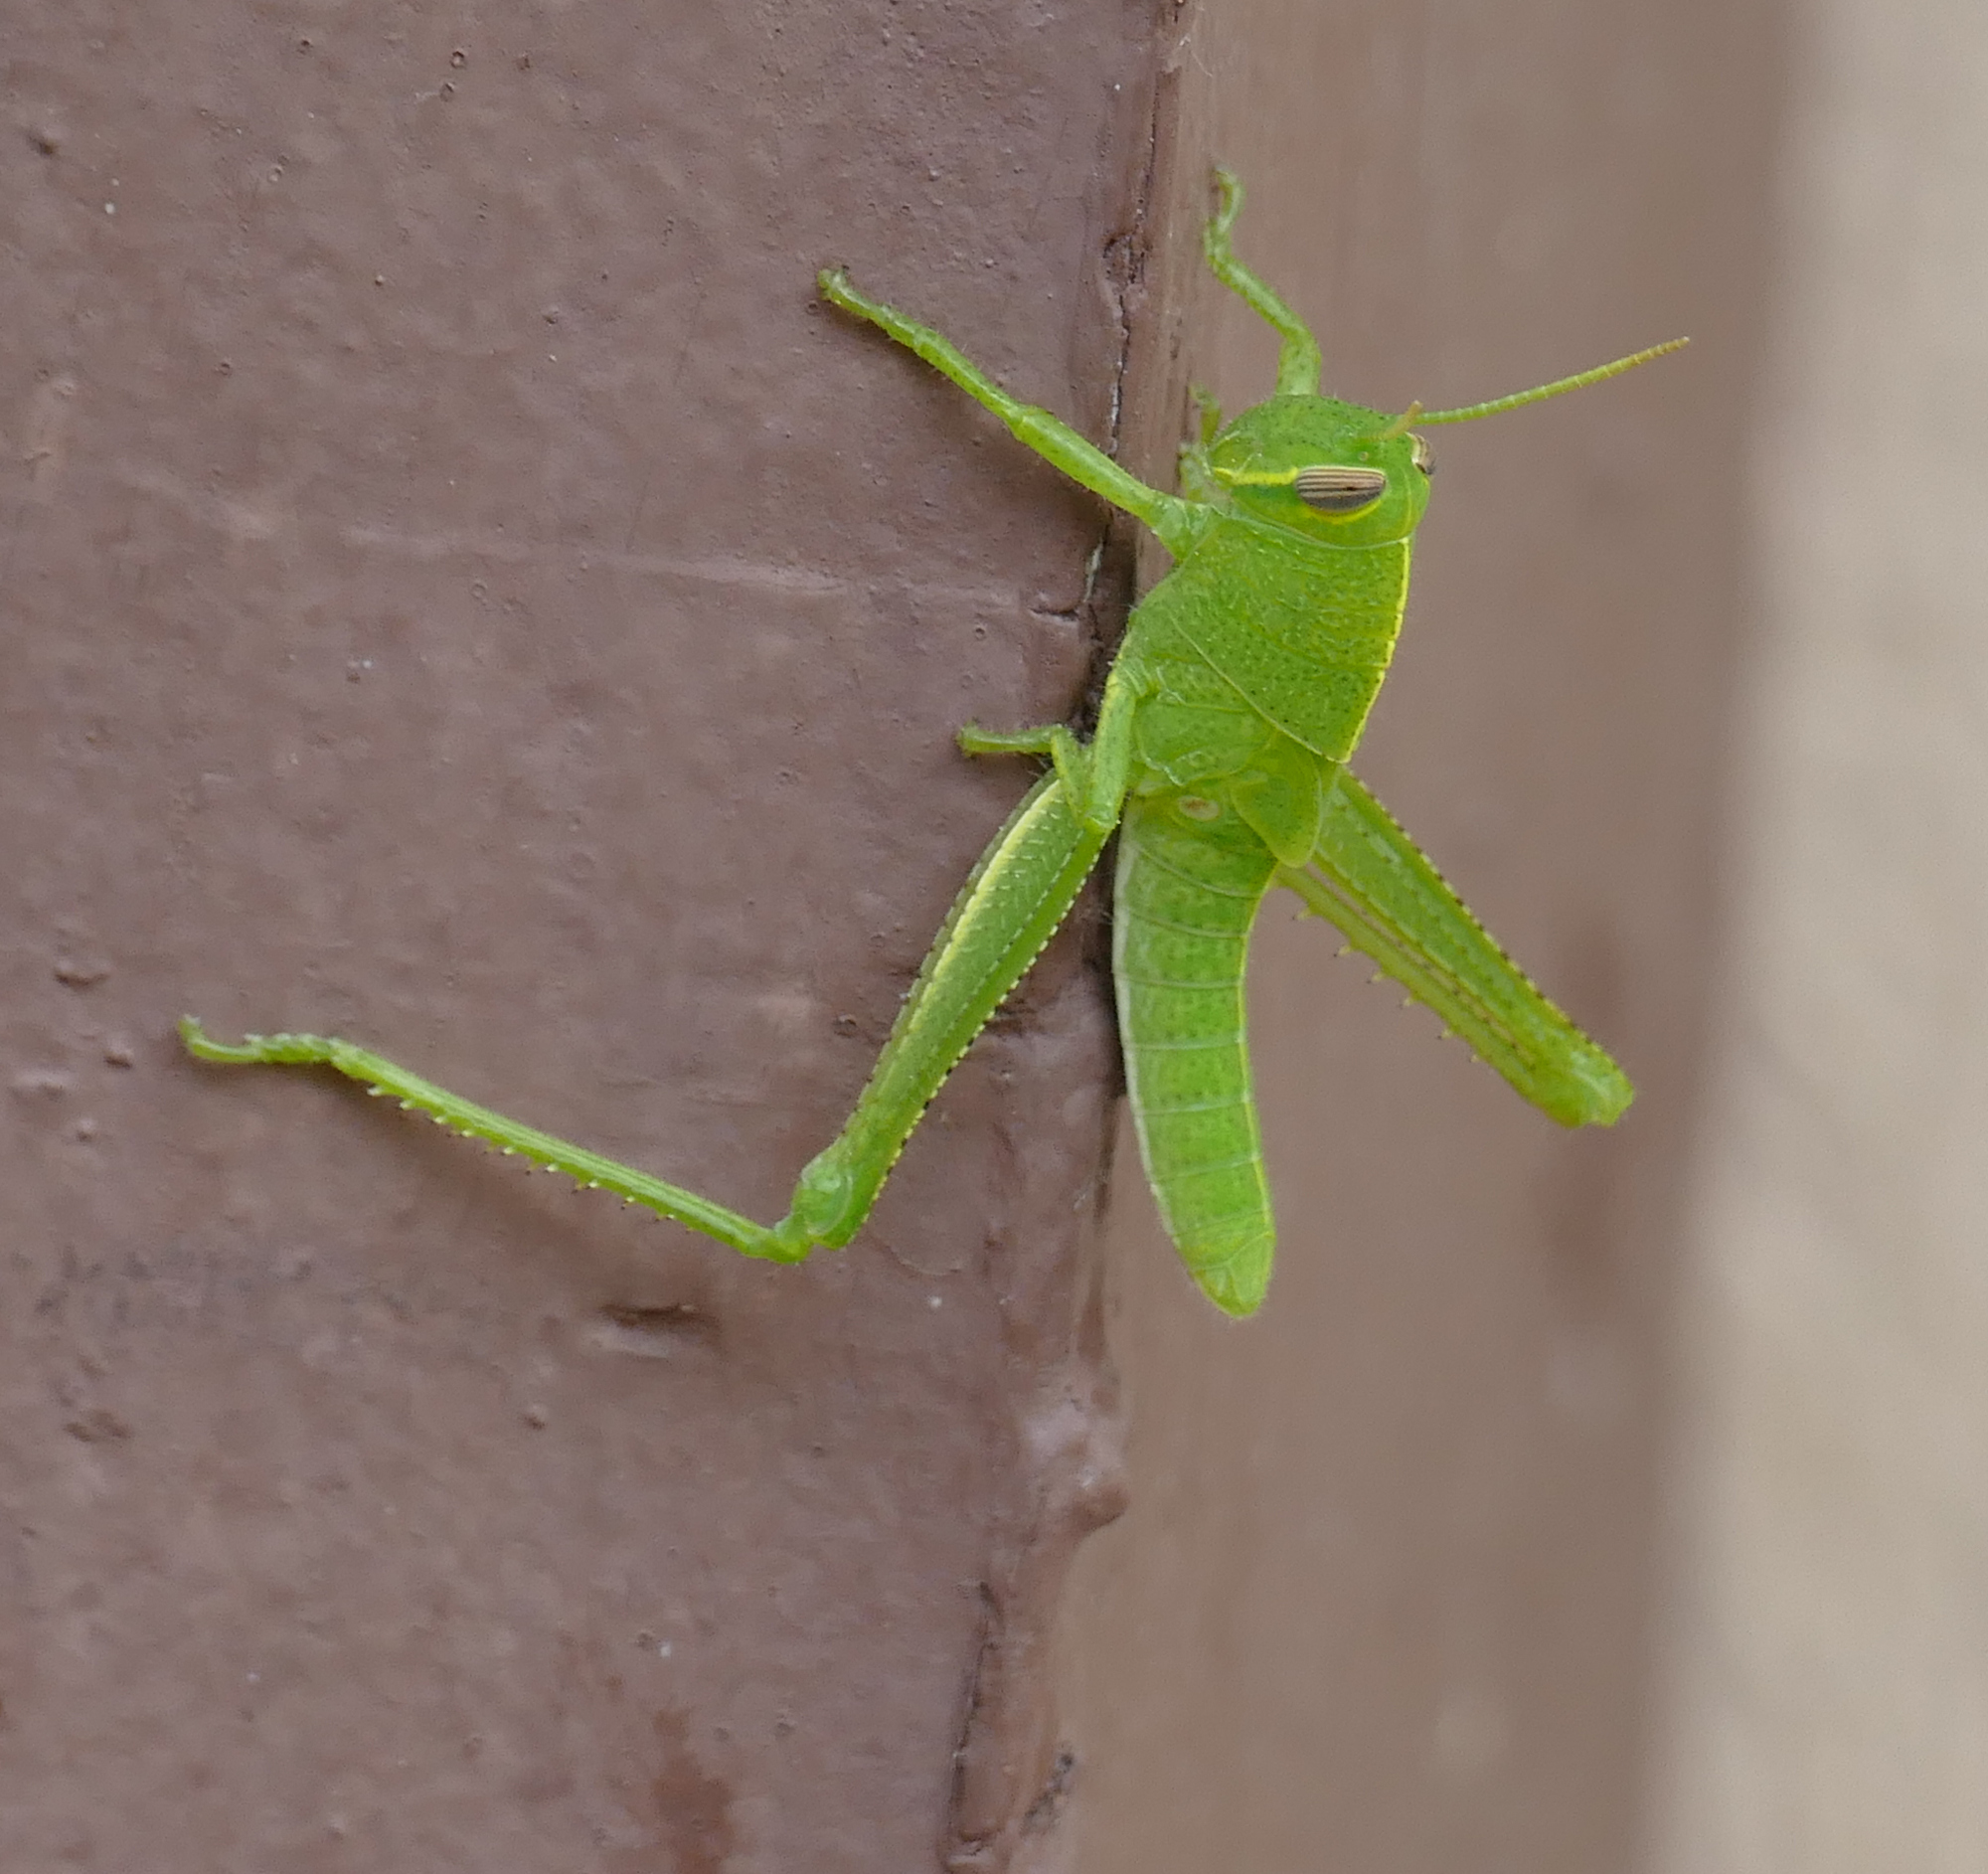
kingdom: Animalia
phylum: Arthropoda
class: Insecta
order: Orthoptera
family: Acrididae
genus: Schistocerca
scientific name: Schistocerca shoshone
